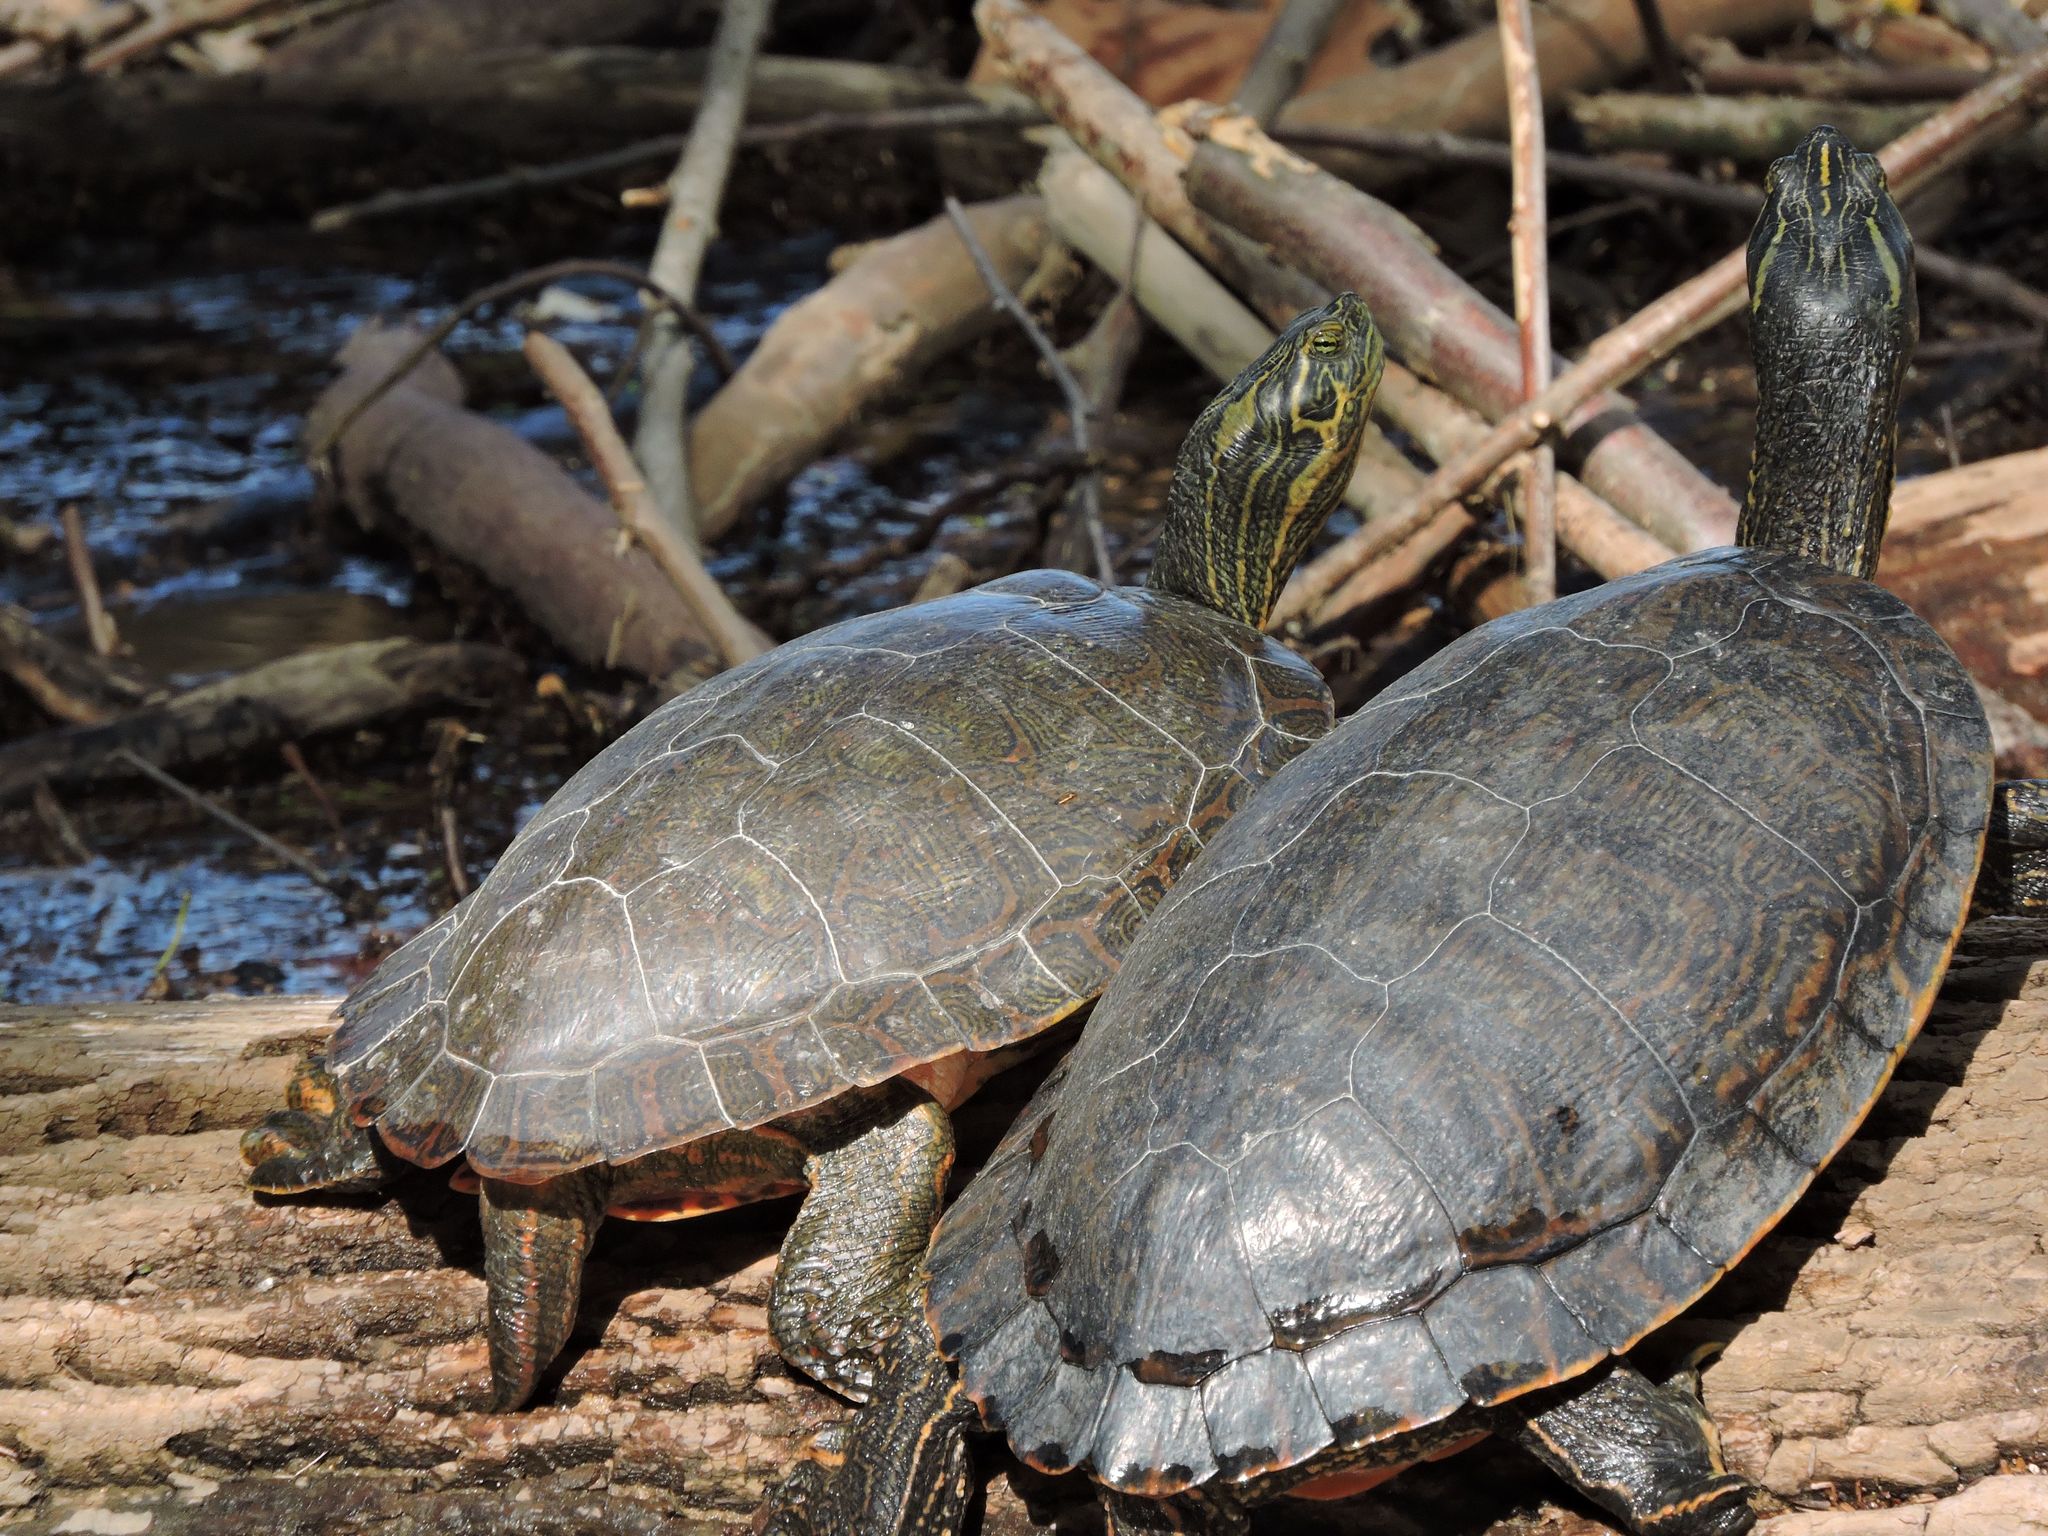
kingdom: Animalia
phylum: Chordata
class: Testudines
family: Emydidae
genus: Pseudemys
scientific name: Pseudemys concinna
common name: Eastern river cooter
